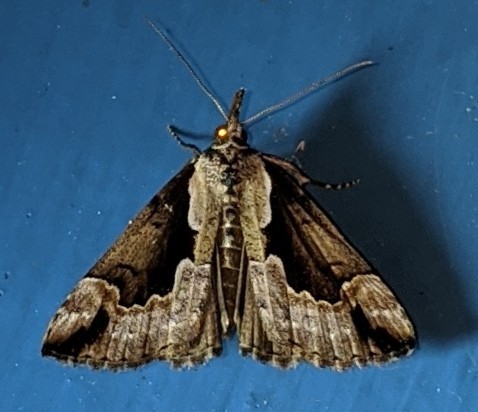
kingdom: Animalia
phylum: Arthropoda
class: Insecta
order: Lepidoptera
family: Erebidae
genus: Hypena
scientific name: Hypena baltimoralis
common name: Baltimore snout
